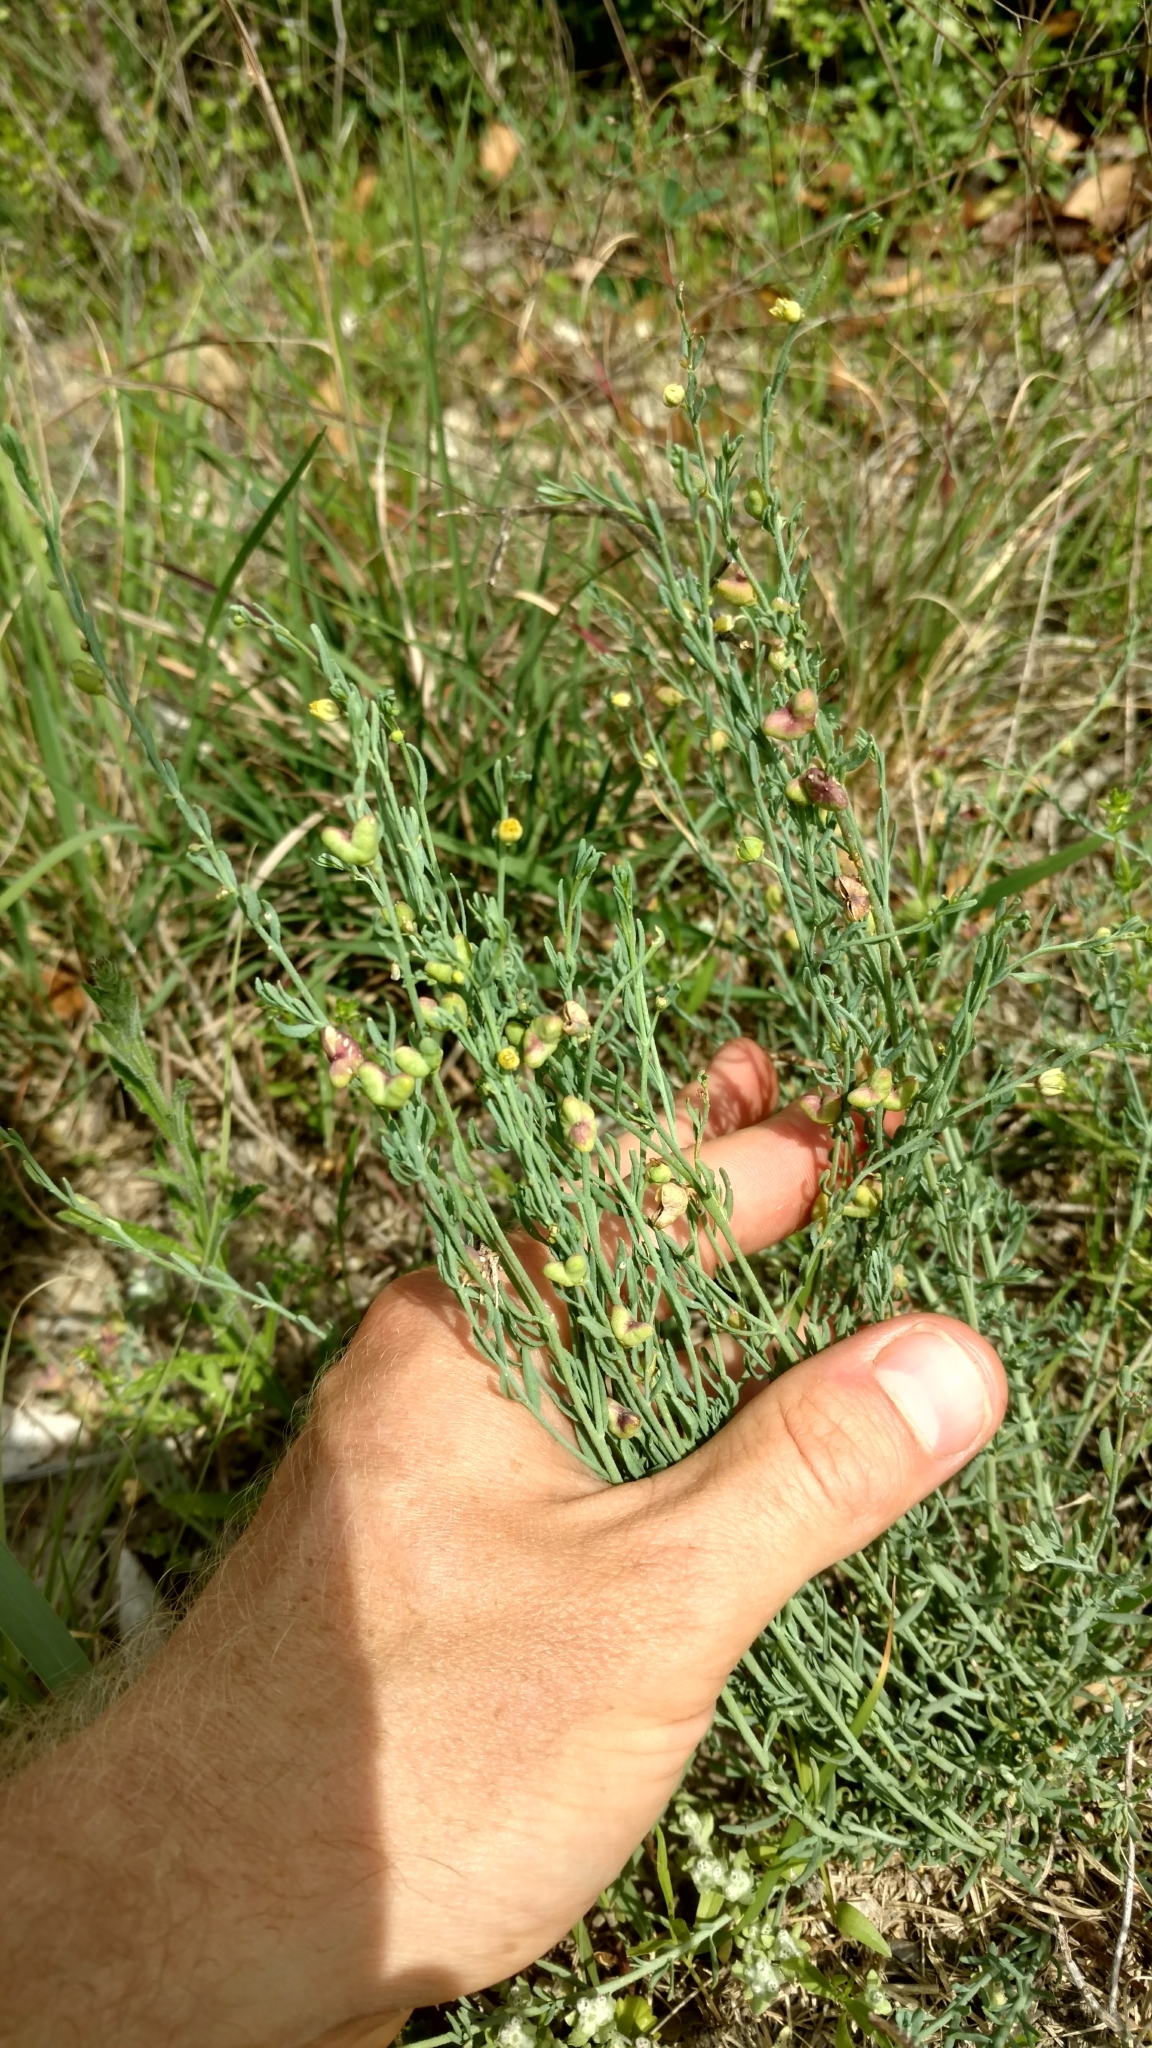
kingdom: Plantae
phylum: Tracheophyta
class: Magnoliopsida
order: Sapindales
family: Rutaceae
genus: Thamnosma
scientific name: Thamnosma texana
